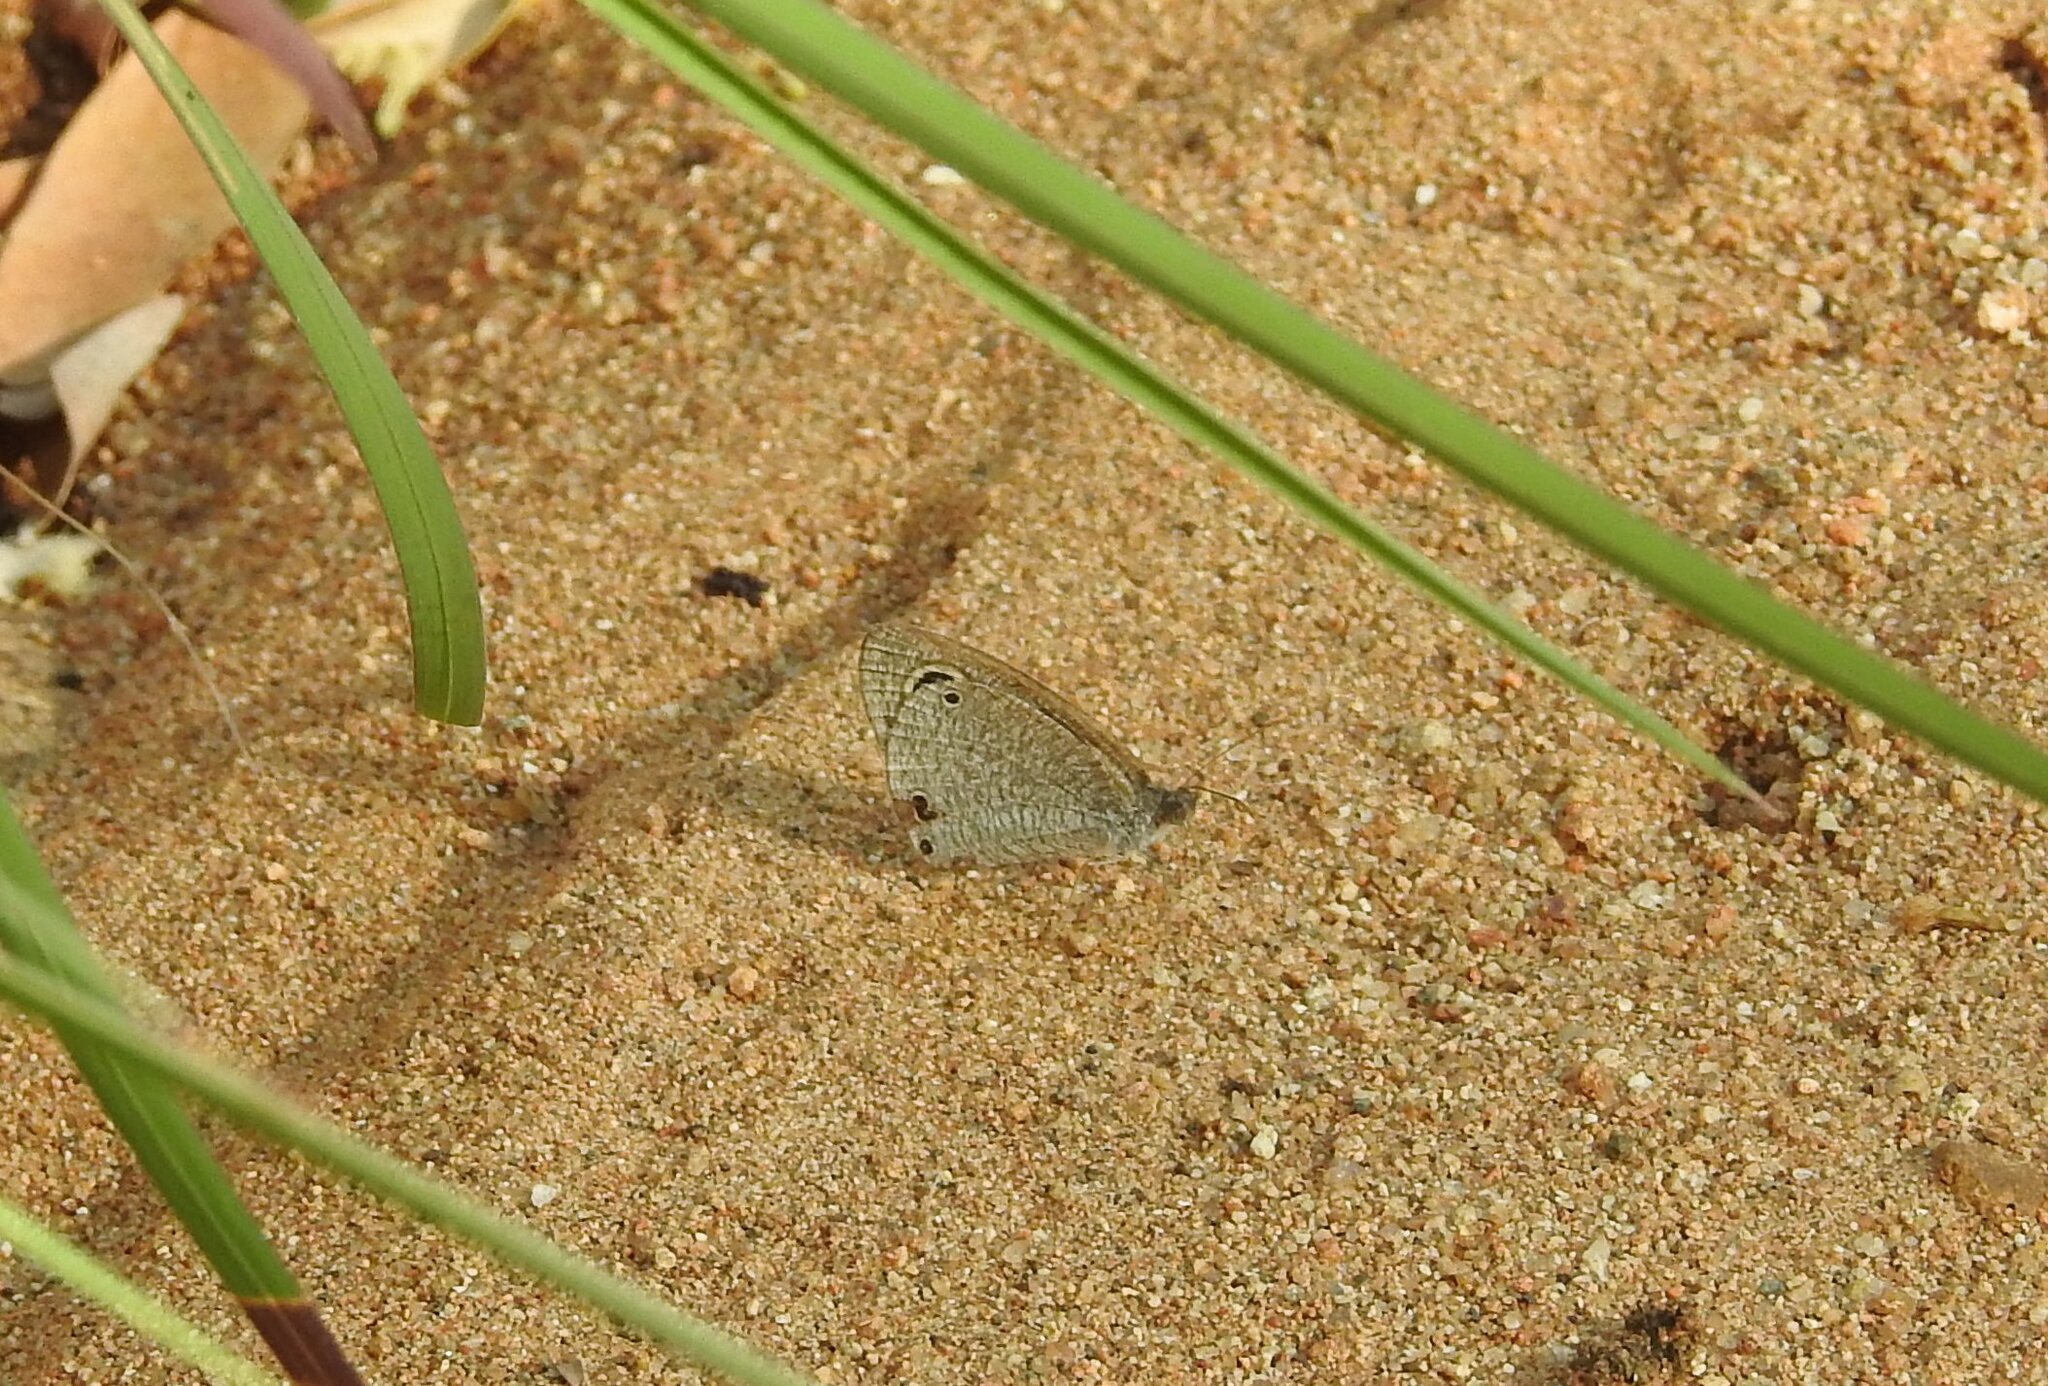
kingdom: Animalia
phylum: Arthropoda
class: Insecta
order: Lepidoptera
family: Nymphalidae
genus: Ypthima
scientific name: Ypthima asterope
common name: African ringlet
